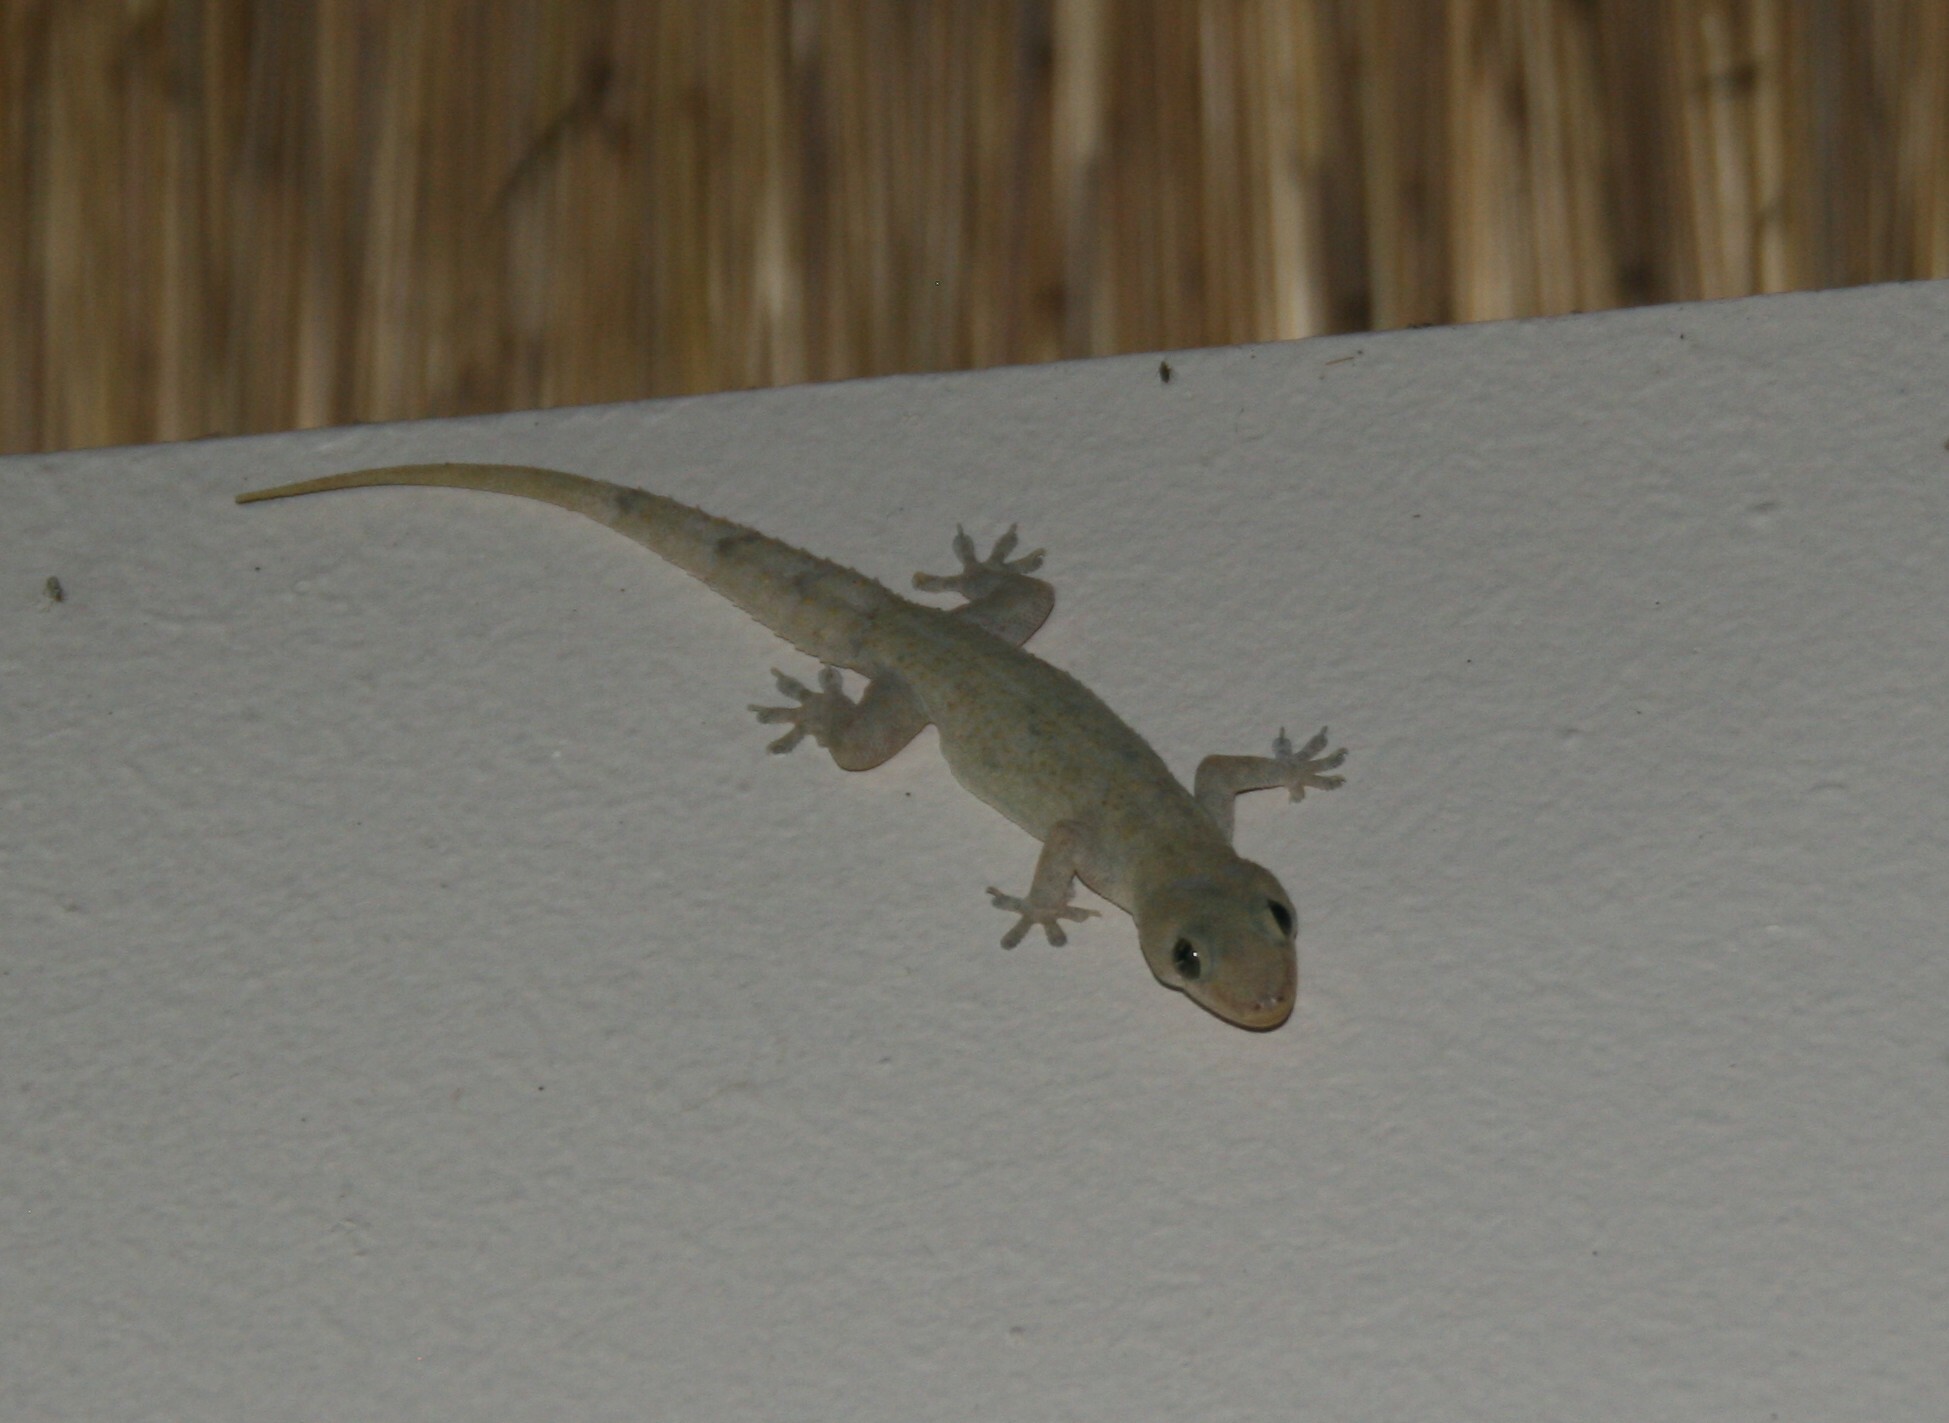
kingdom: Animalia
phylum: Chordata
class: Squamata
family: Gekkonidae
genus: Hemidactylus
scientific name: Hemidactylus mabouia
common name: House gecko
